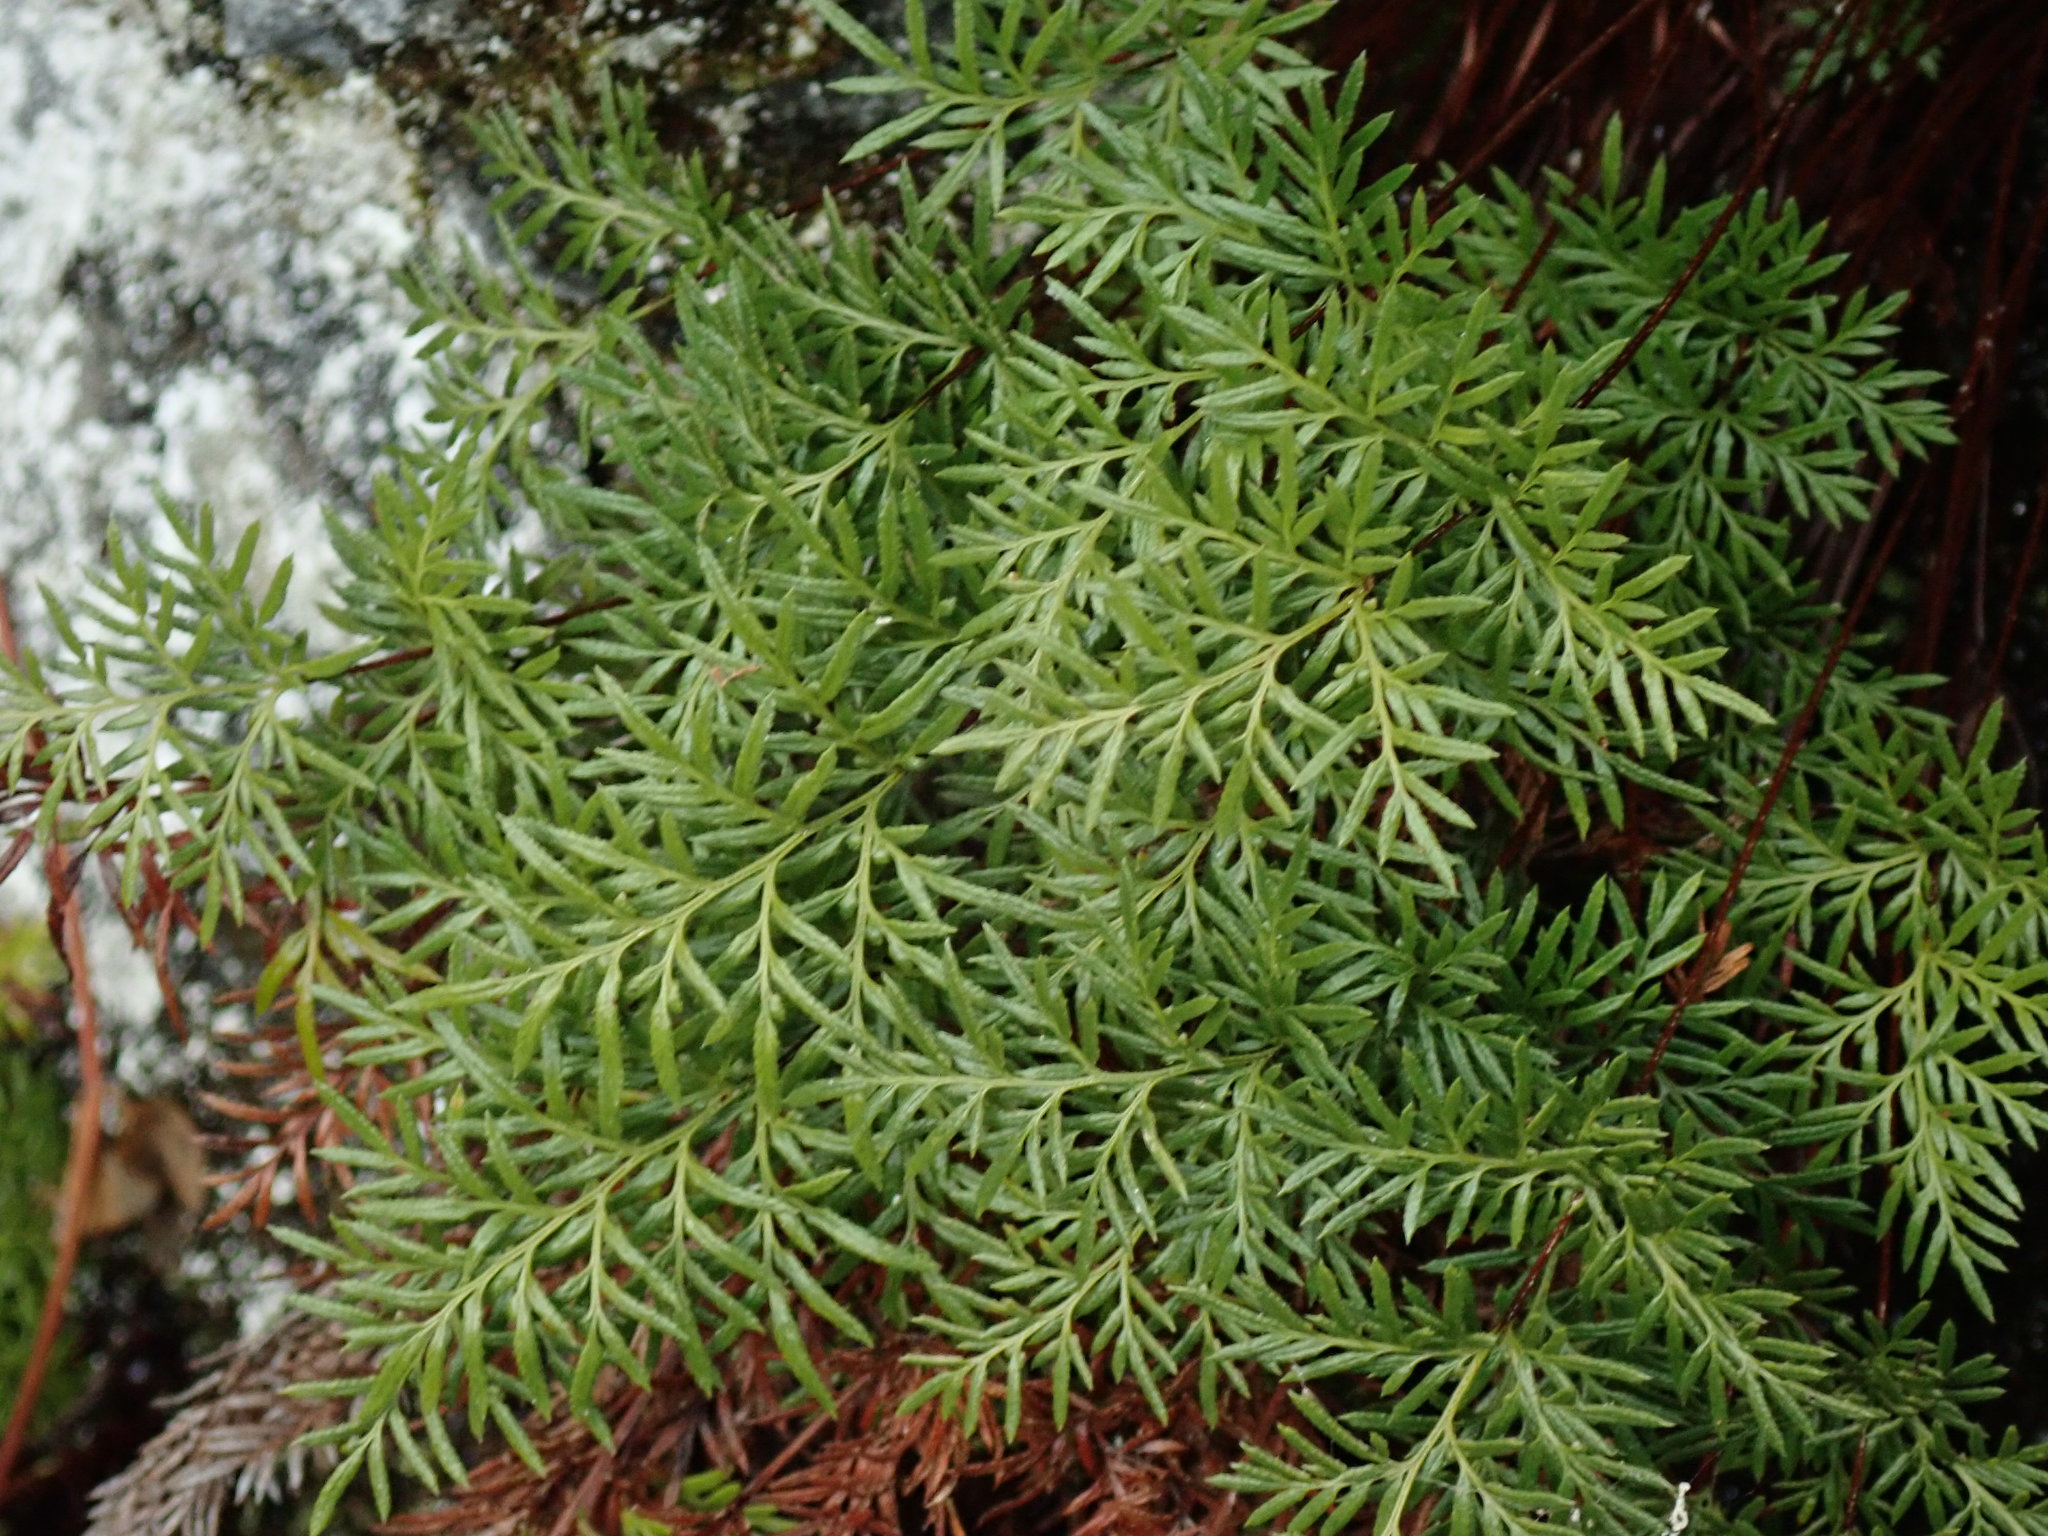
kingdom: Plantae
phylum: Tracheophyta
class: Polypodiopsida
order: Polypodiales
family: Pteridaceae
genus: Aspidotis
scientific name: Aspidotis densa
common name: Indian's dream
